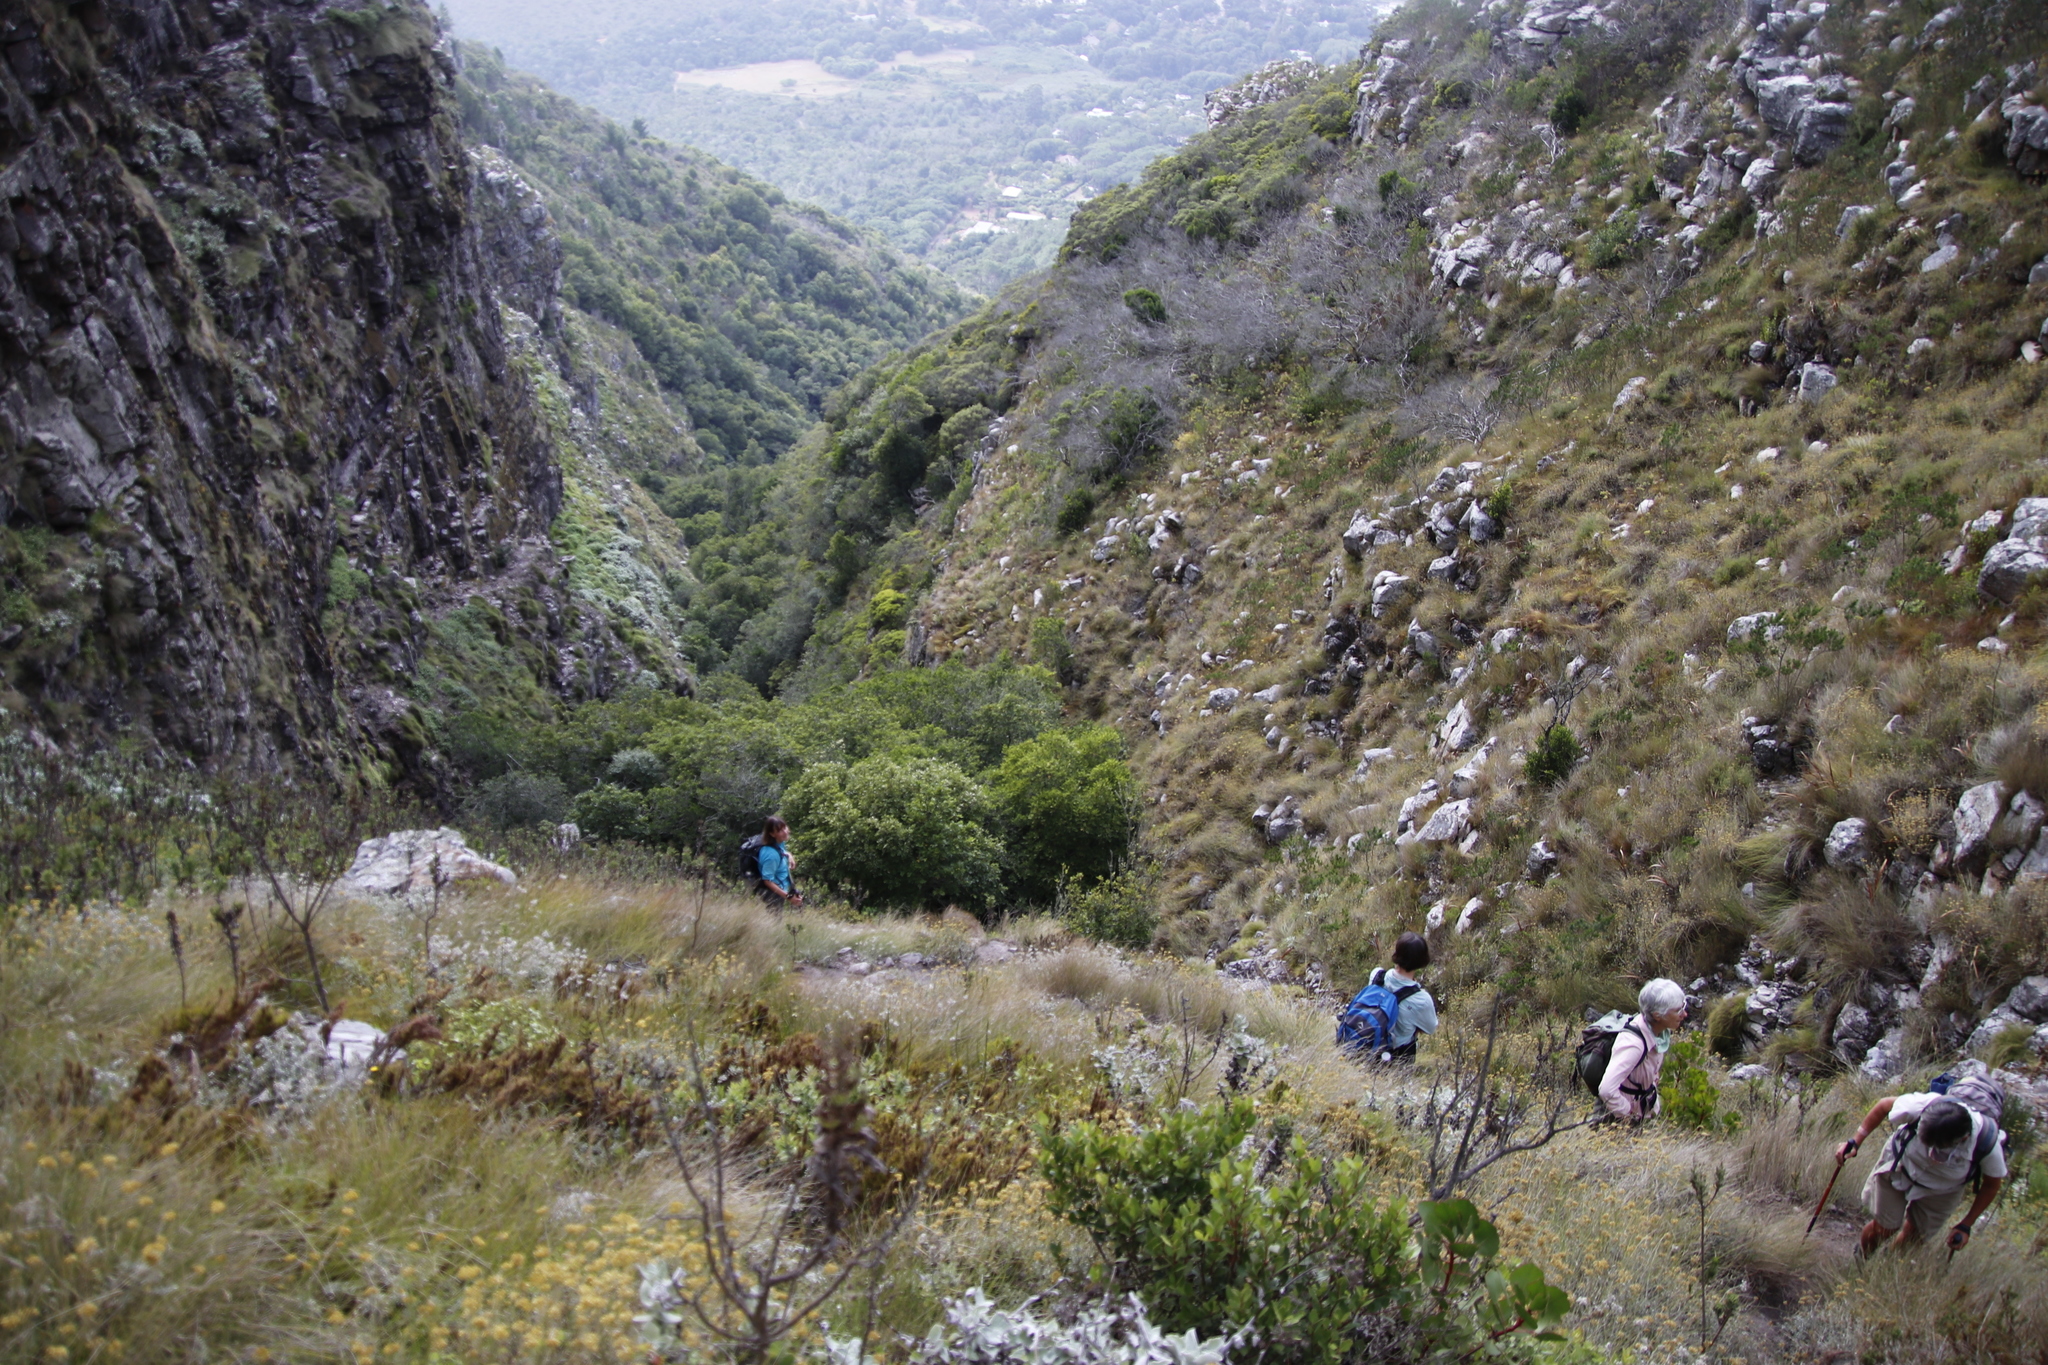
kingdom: Plantae
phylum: Tracheophyta
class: Magnoliopsida
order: Oxalidales
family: Cunoniaceae
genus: Cunonia
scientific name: Cunonia capensis
